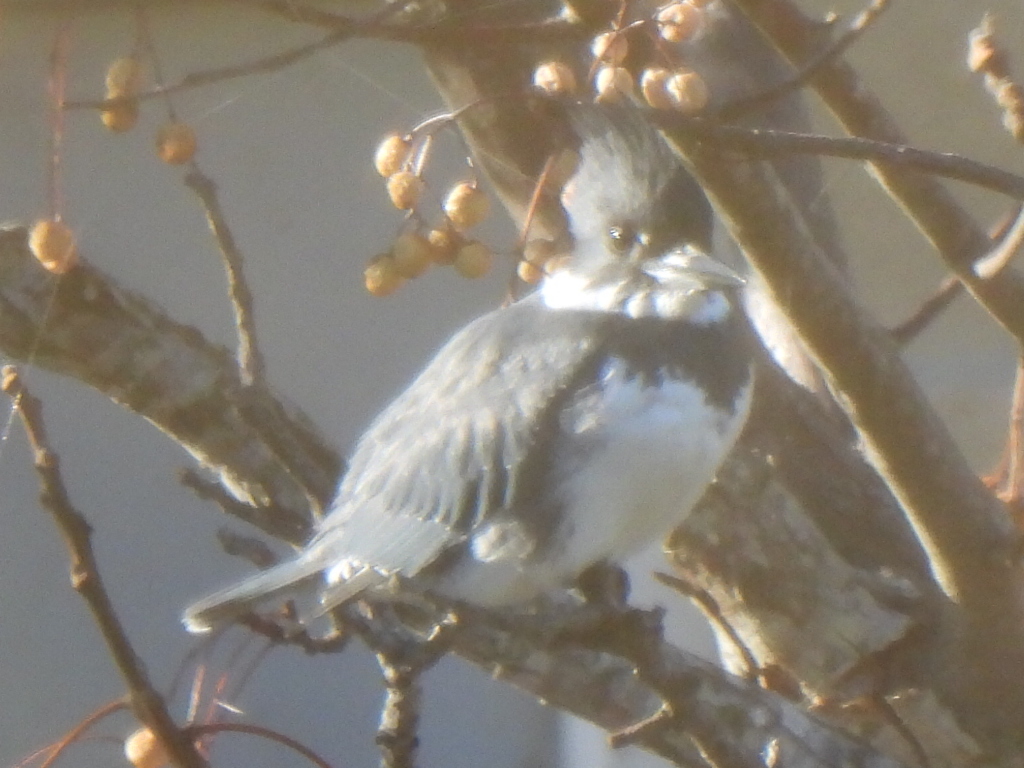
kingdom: Animalia
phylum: Chordata
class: Aves
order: Coraciiformes
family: Alcedinidae
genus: Megaceryle
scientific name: Megaceryle alcyon
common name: Belted kingfisher
